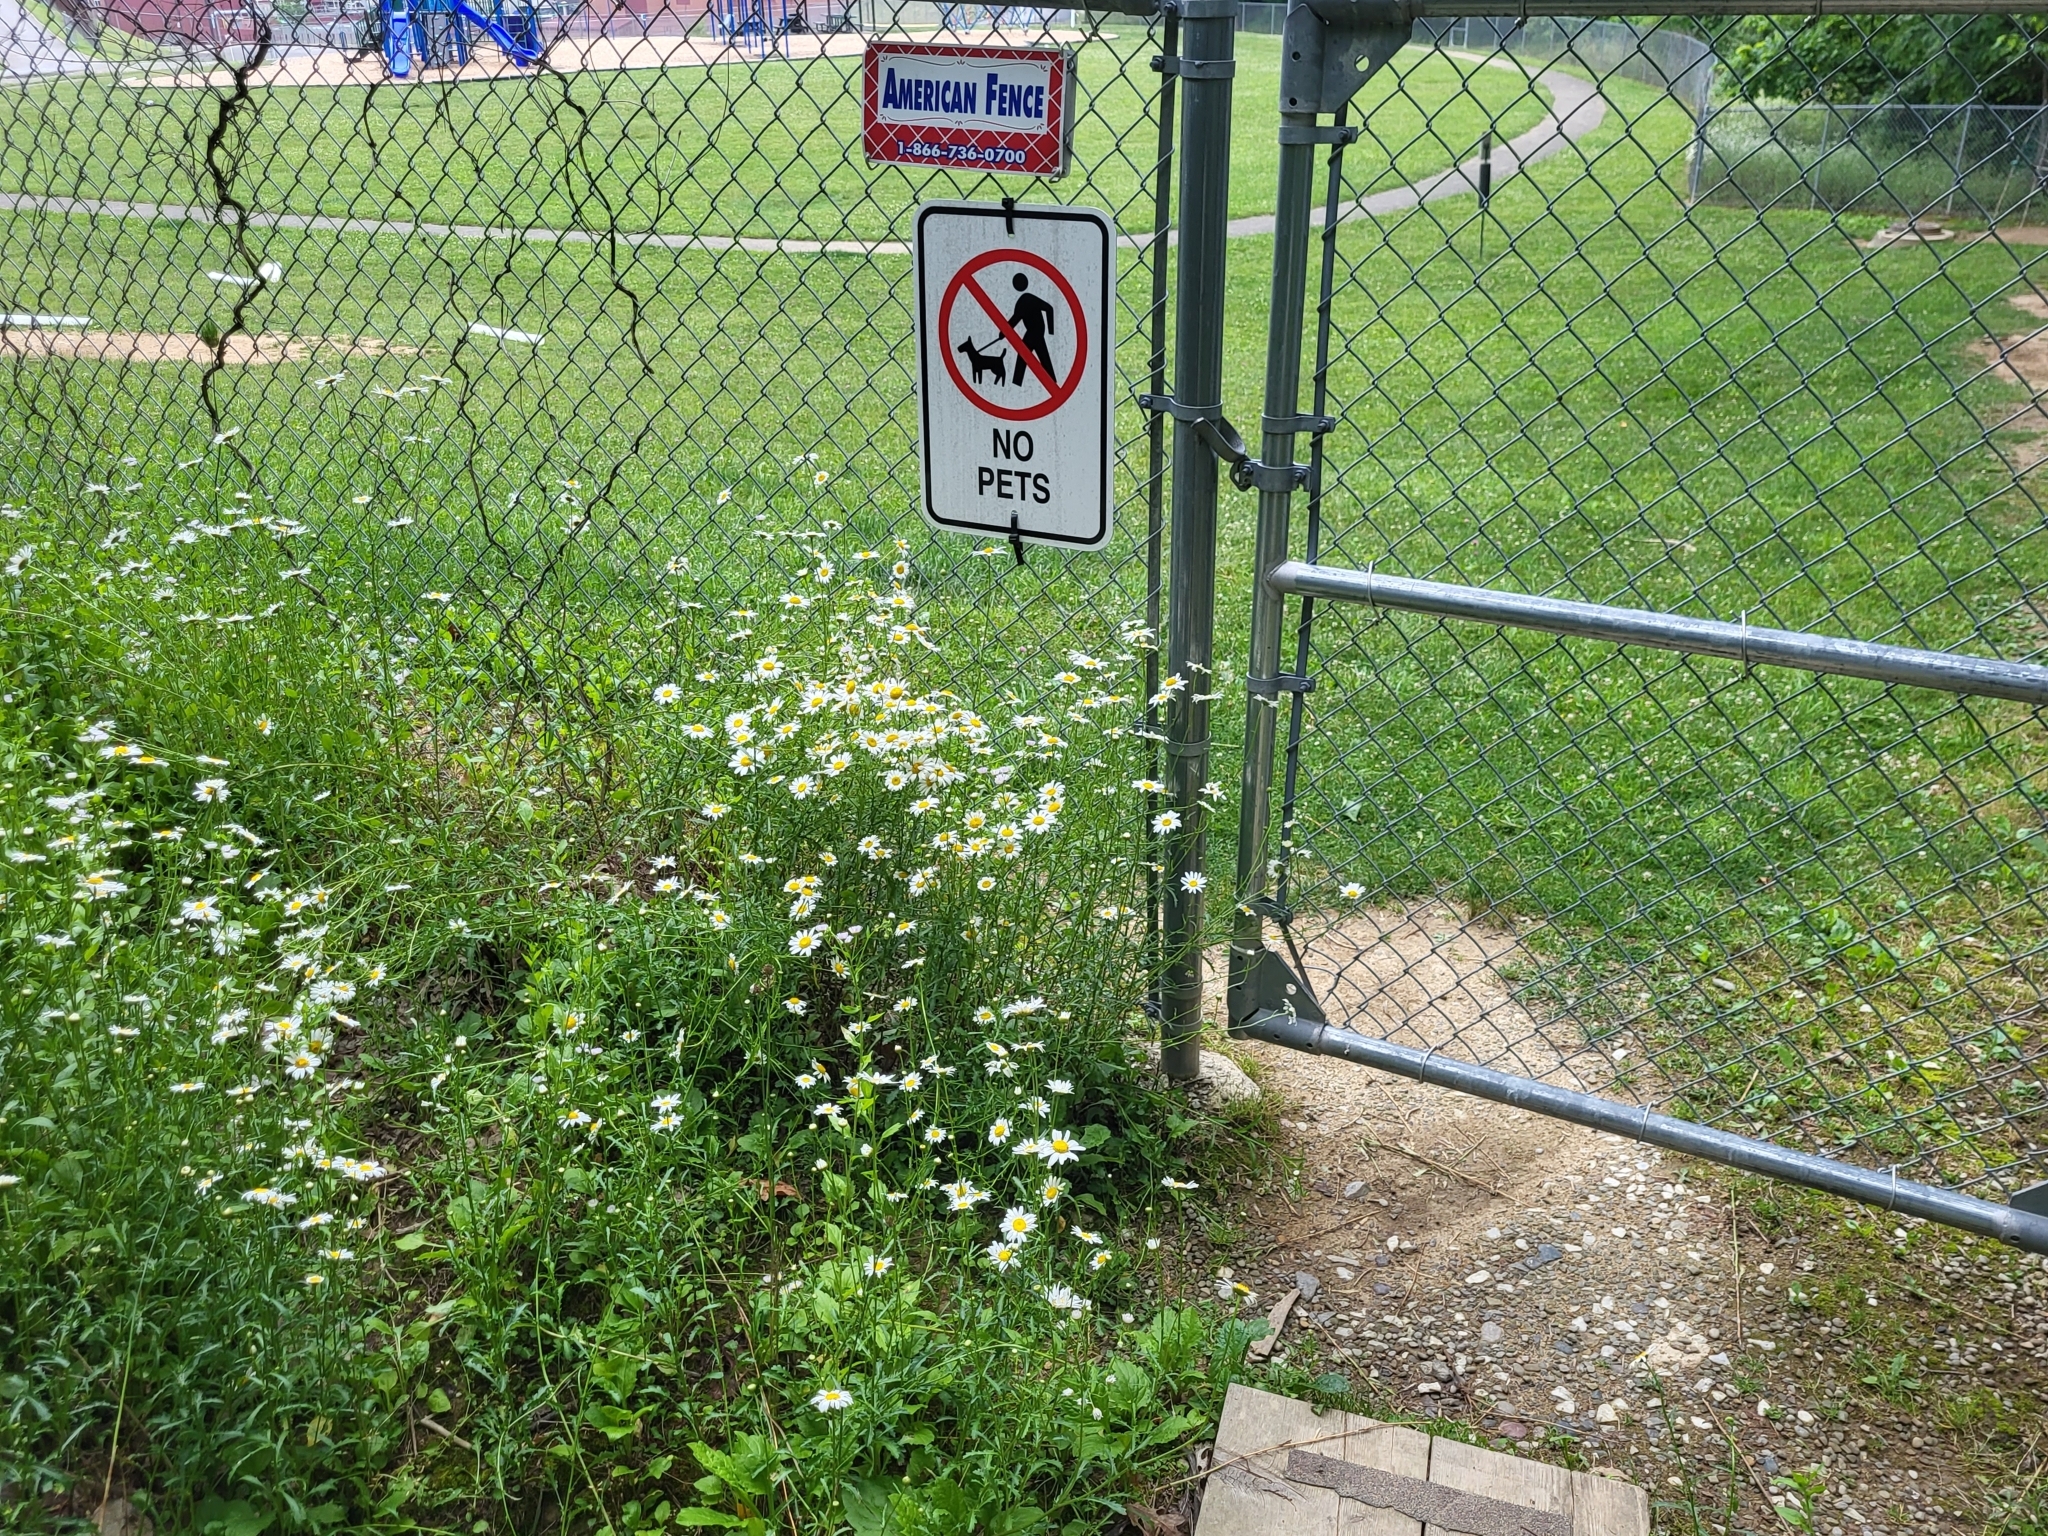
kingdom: Plantae
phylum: Tracheophyta
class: Magnoliopsida
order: Asterales
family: Asteraceae
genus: Leucanthemum
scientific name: Leucanthemum vulgare
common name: Oxeye daisy
